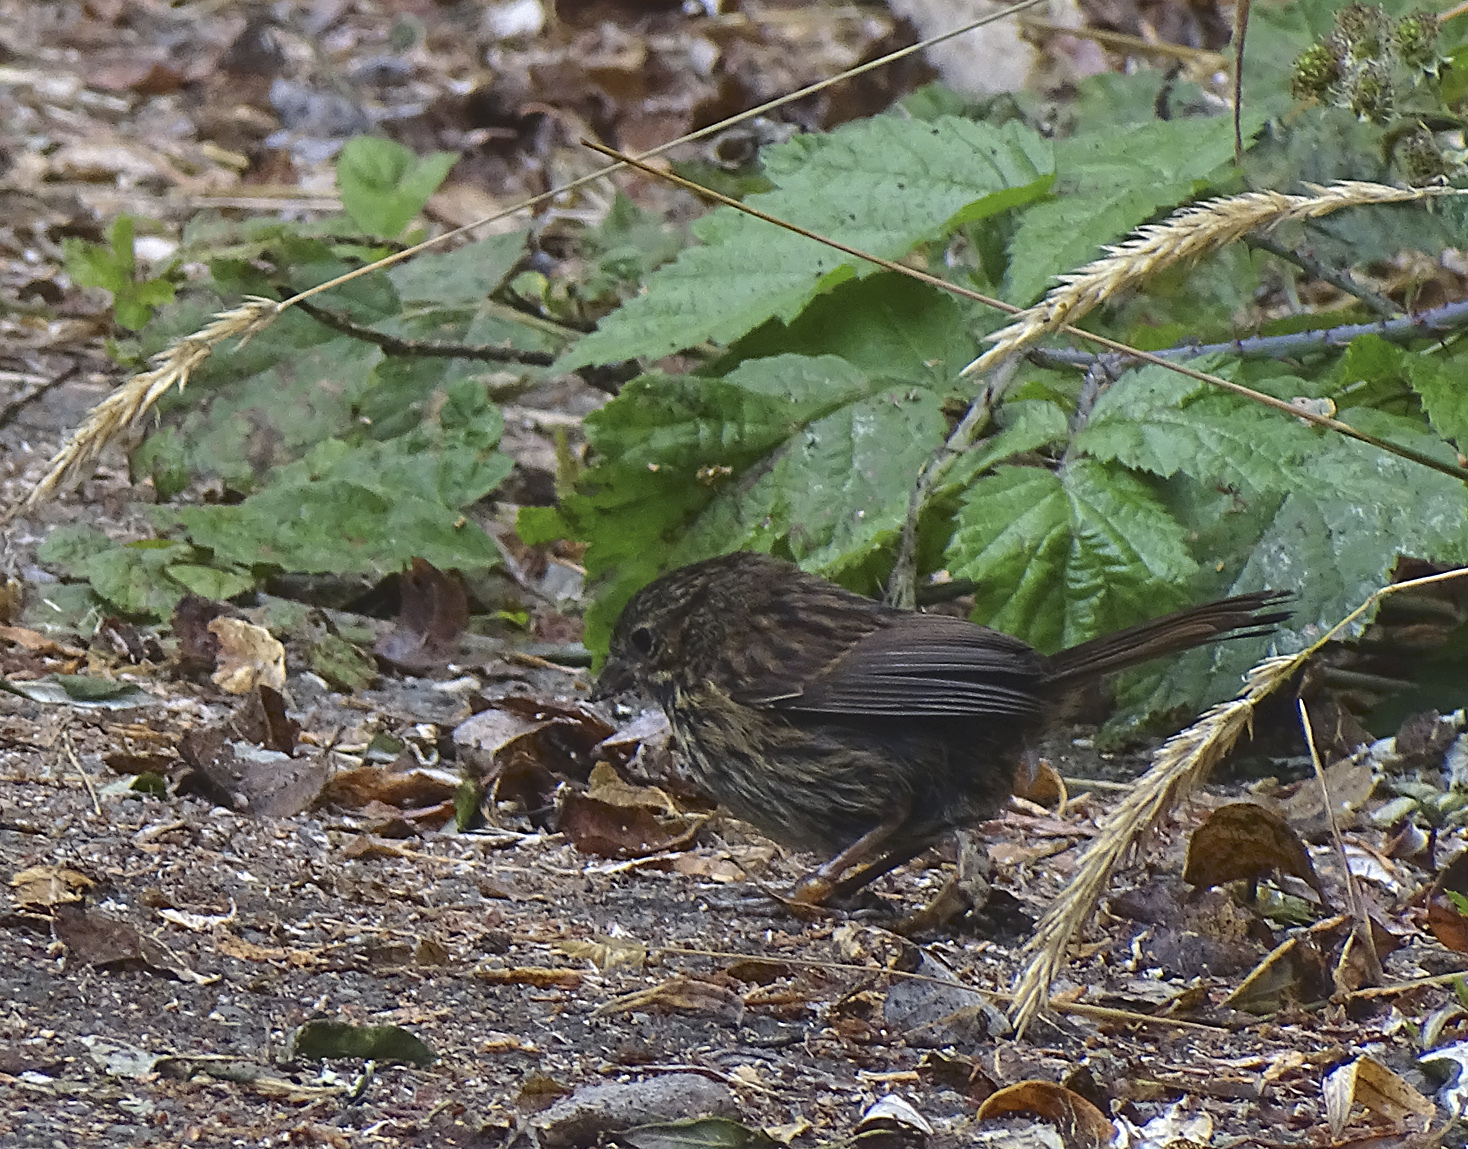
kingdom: Animalia
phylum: Chordata
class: Aves
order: Passeriformes
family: Passerellidae
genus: Melospiza
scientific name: Melospiza melodia
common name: Song sparrow
